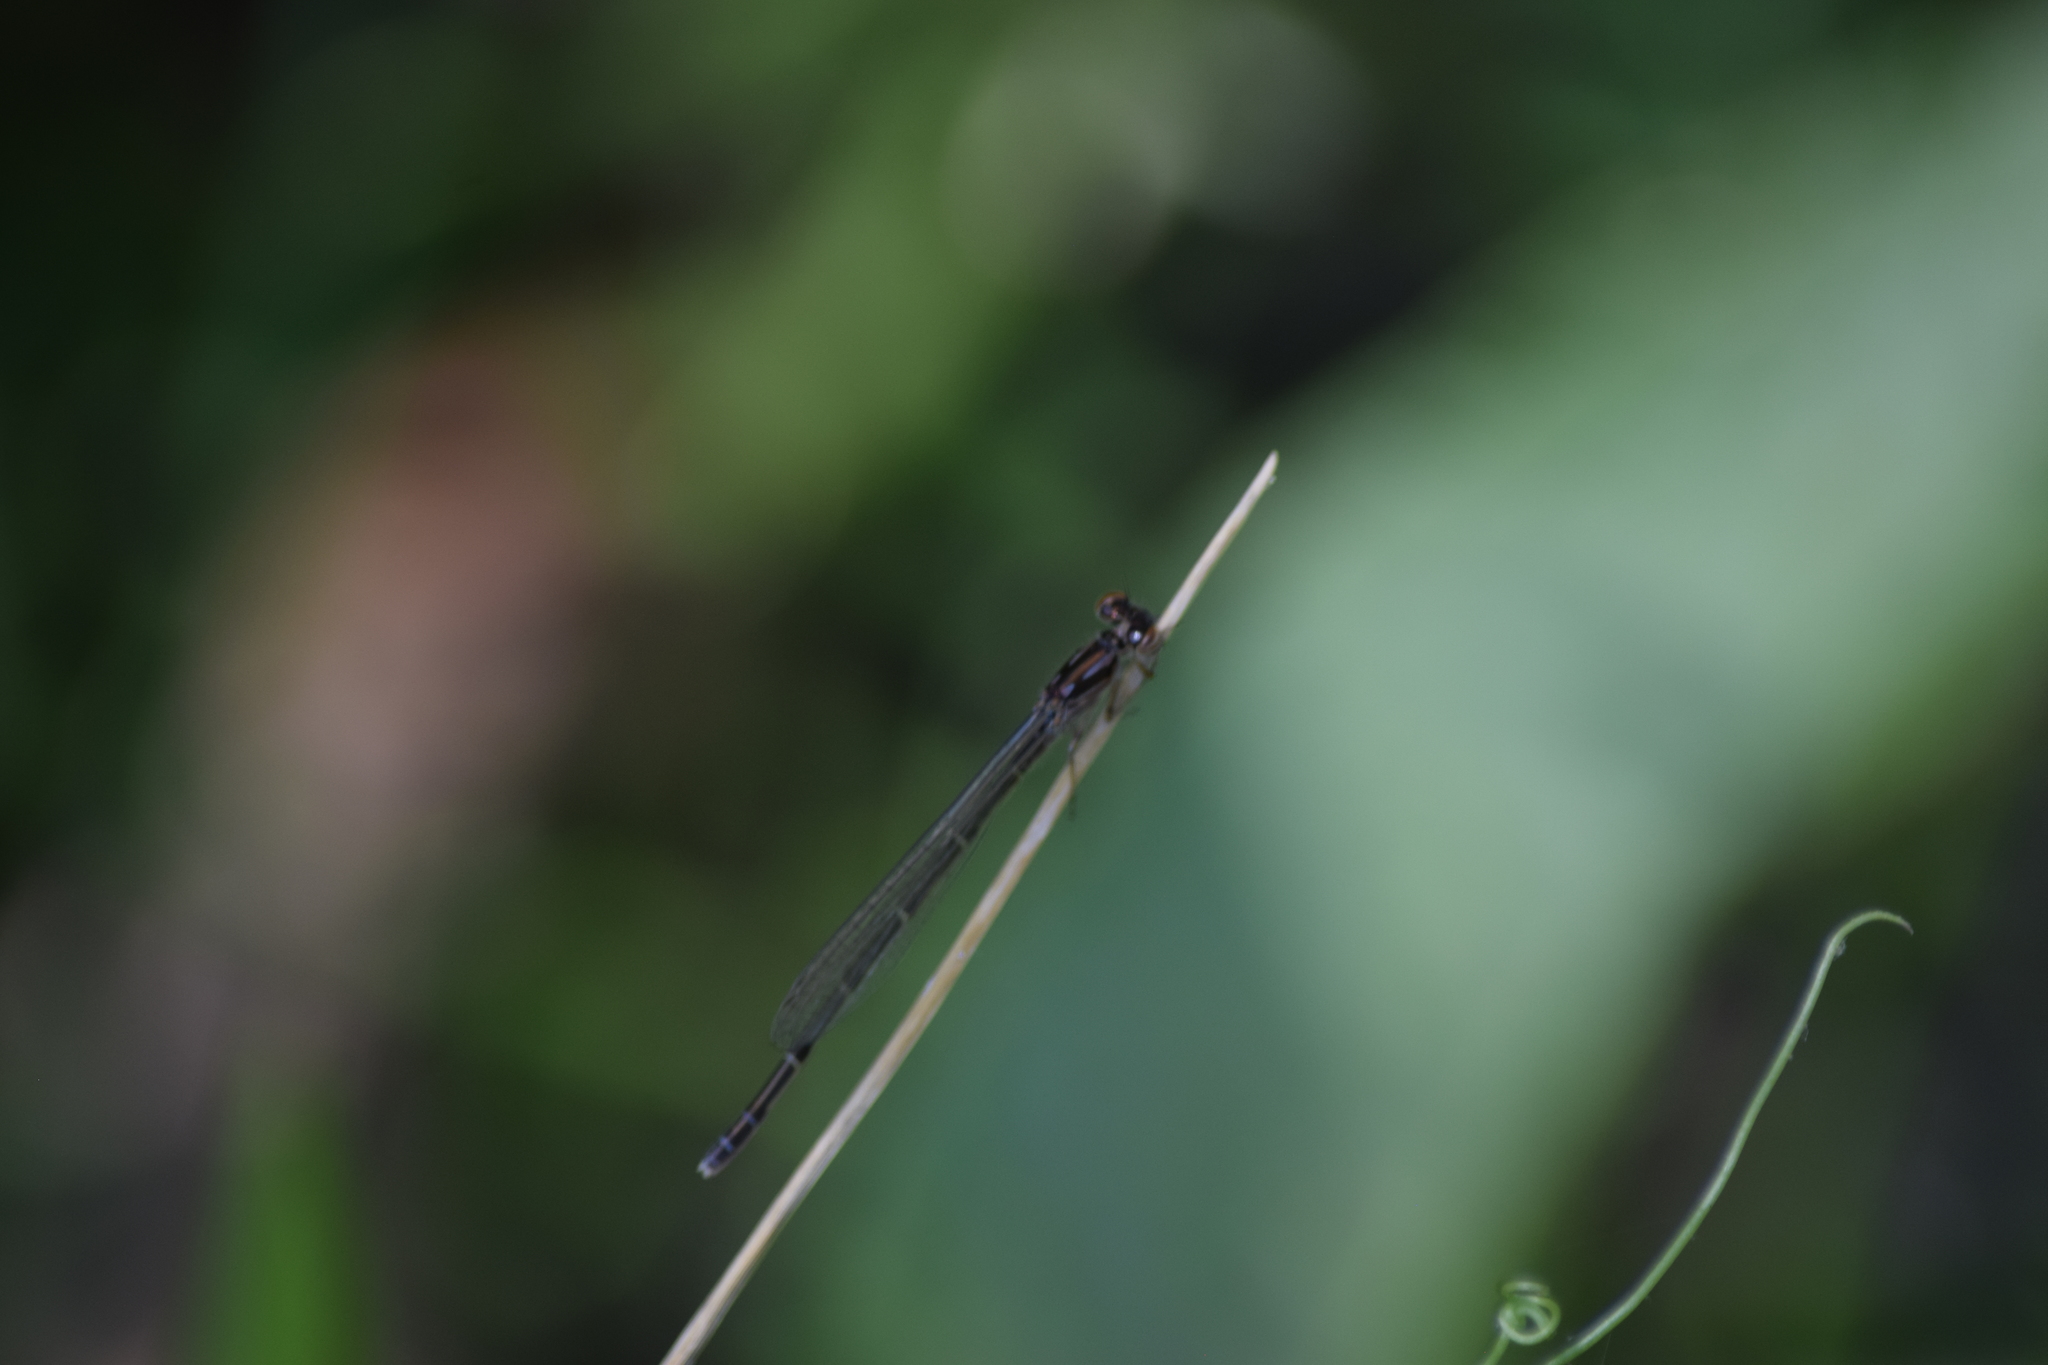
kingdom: Animalia
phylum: Arthropoda
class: Insecta
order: Odonata
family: Coenagrionidae
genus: Ischnura
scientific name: Ischnura posita
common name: Fragile forktail
